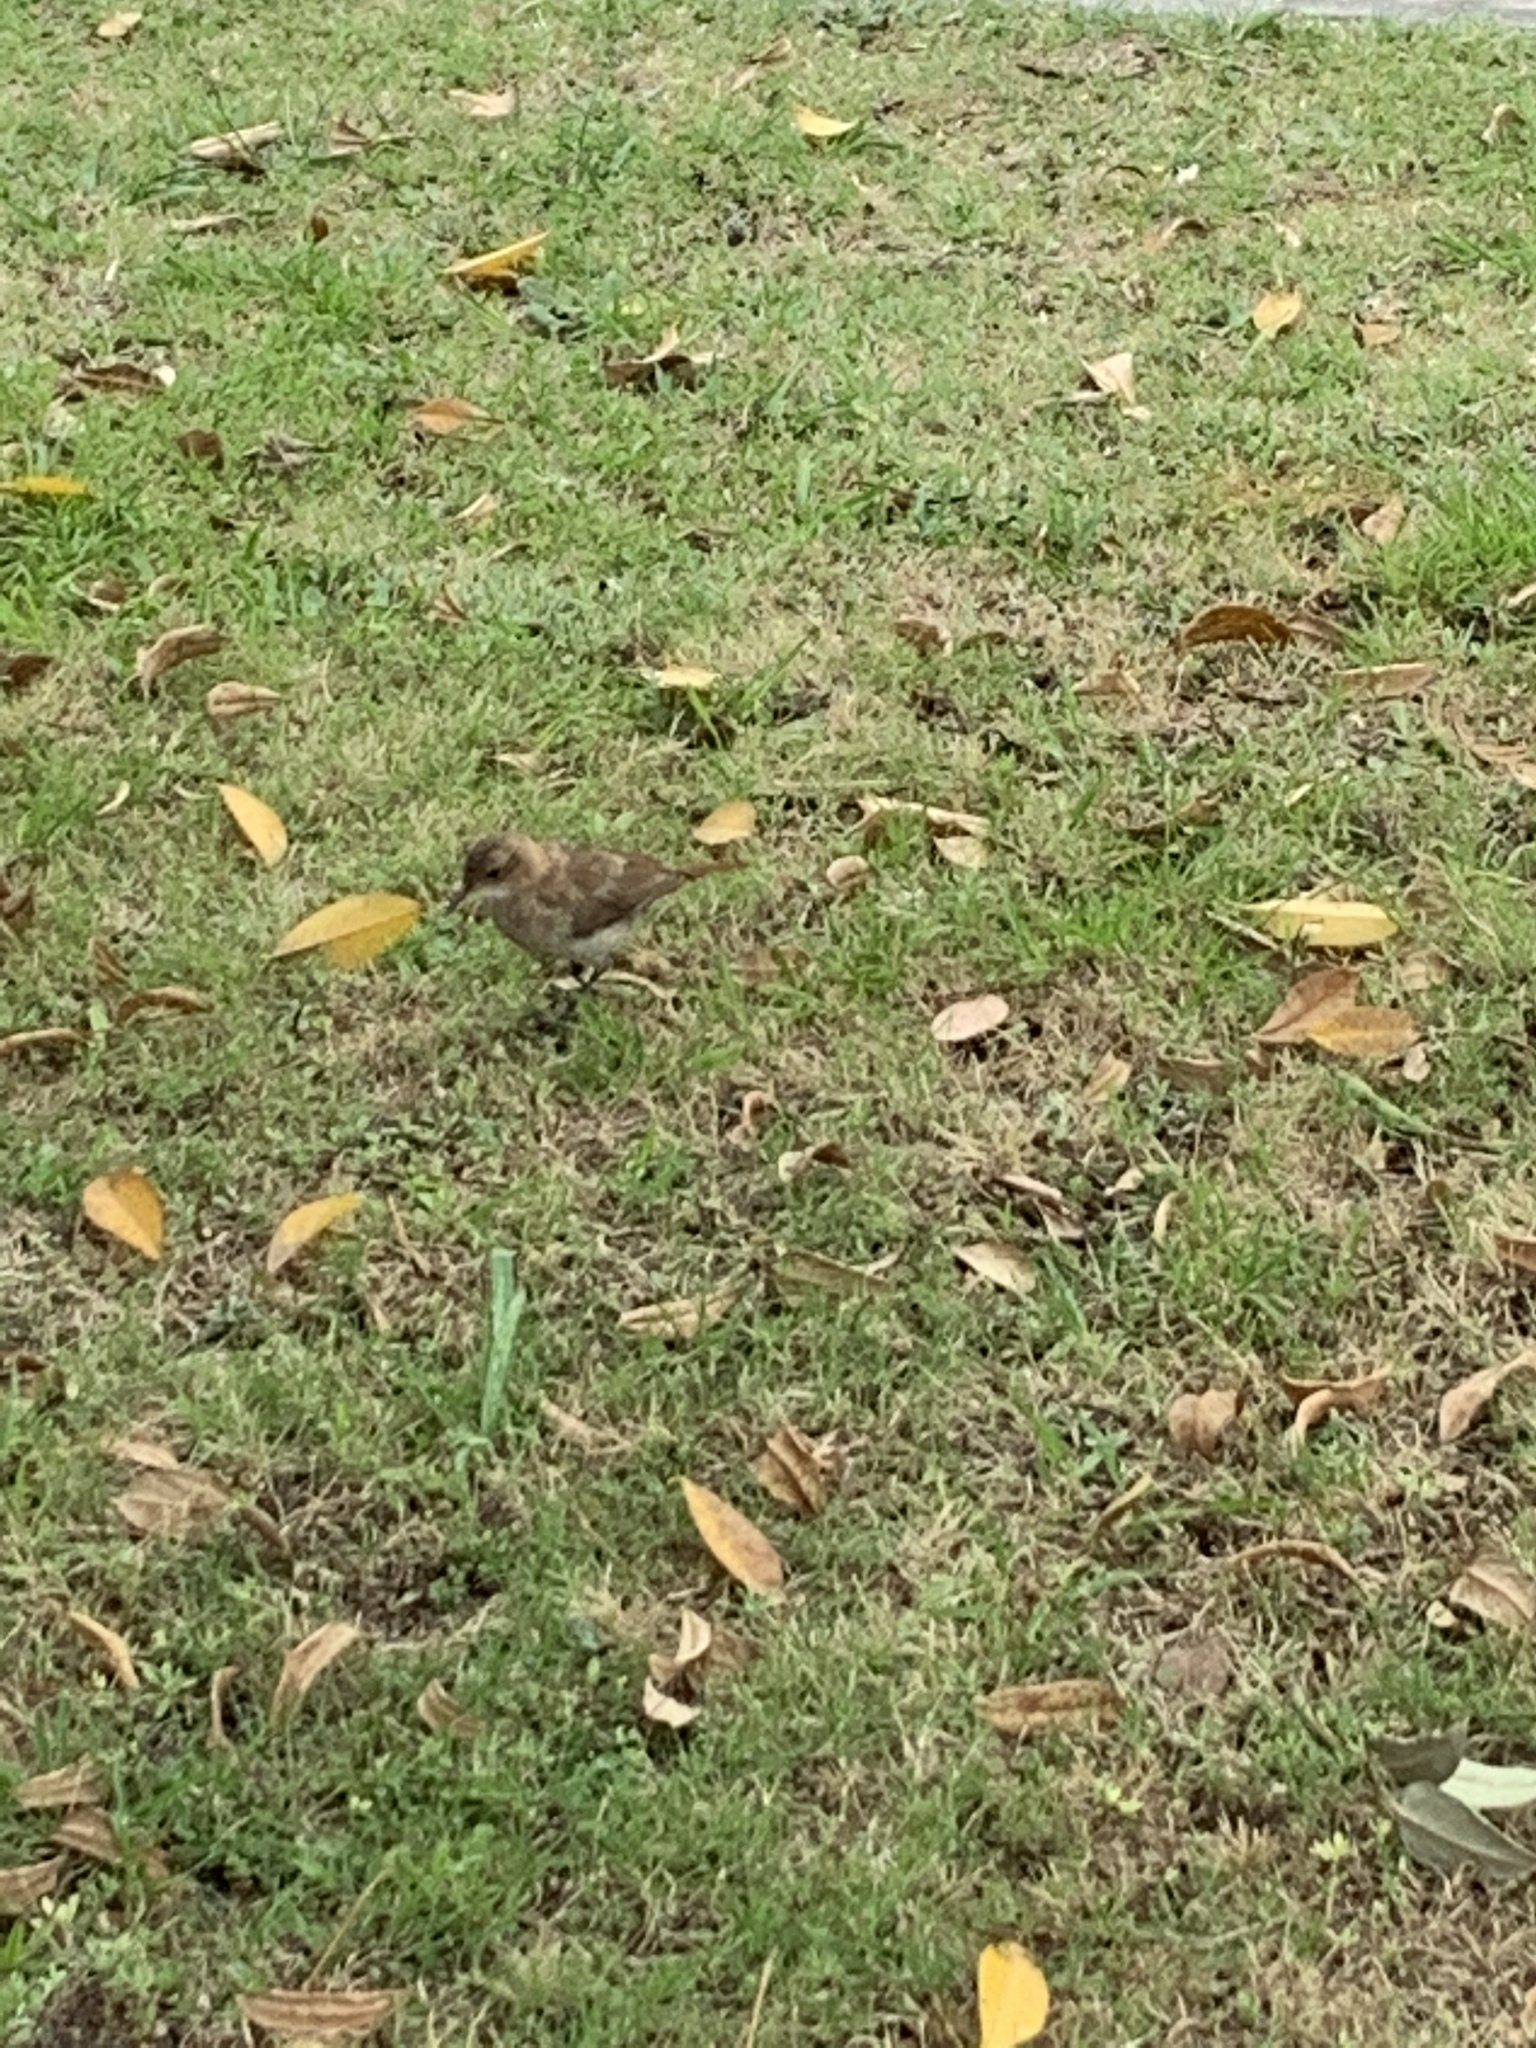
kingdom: Animalia
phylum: Chordata
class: Aves
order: Passeriformes
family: Furnariidae
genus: Furnarius
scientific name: Furnarius rufus
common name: Rufous hornero
